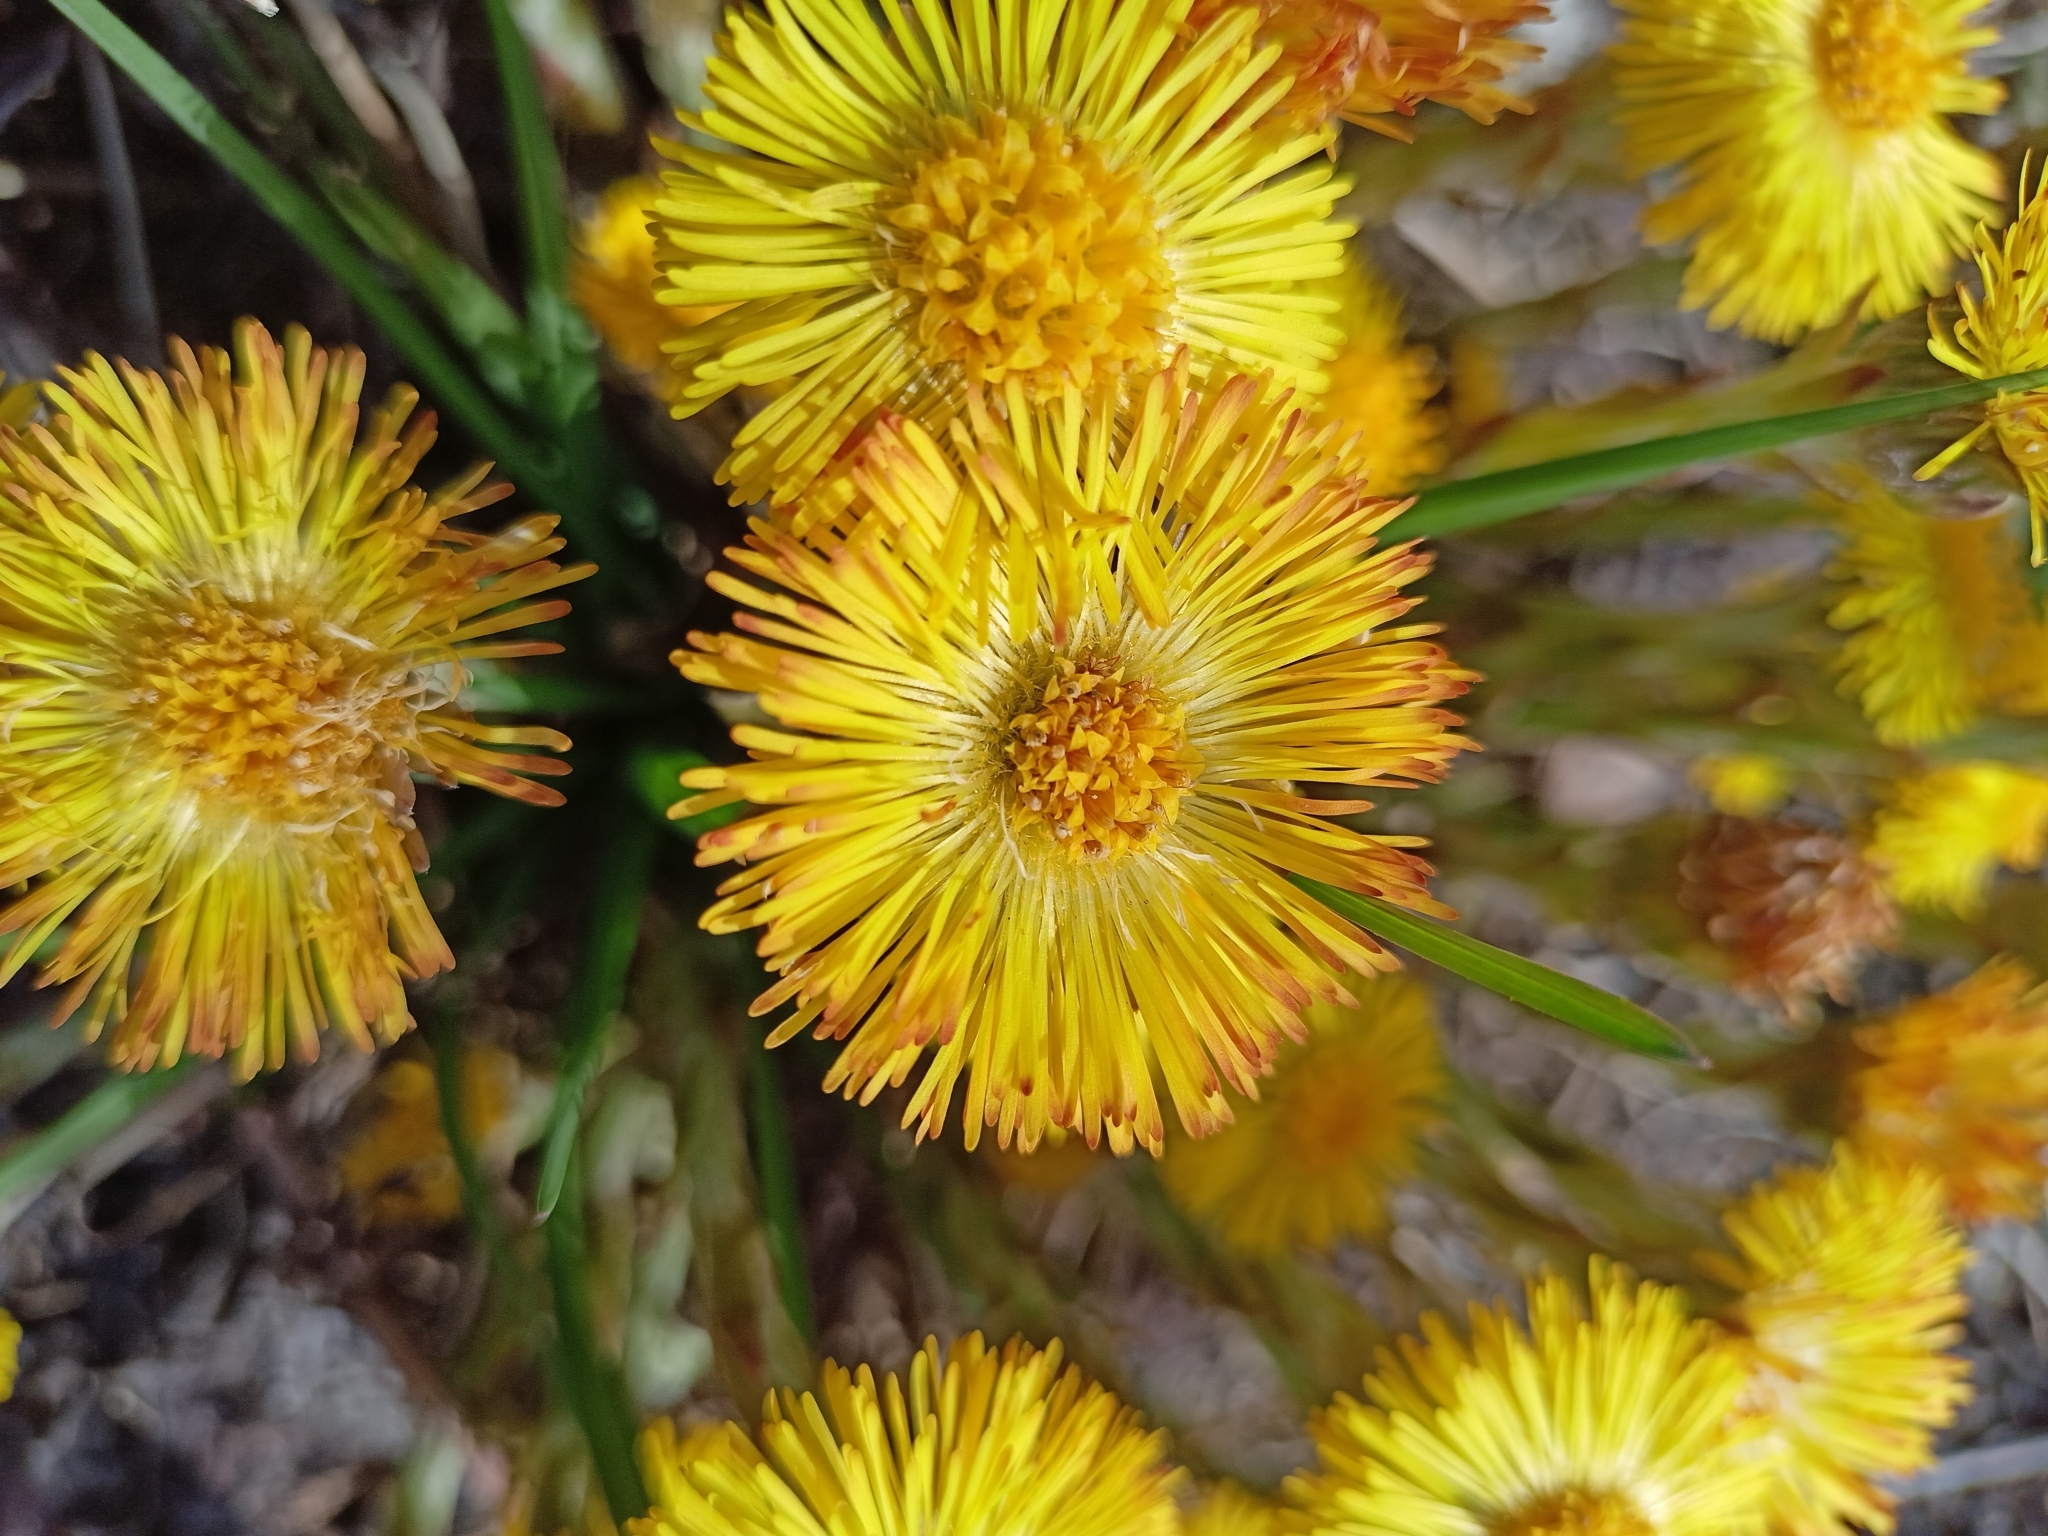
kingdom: Plantae
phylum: Tracheophyta
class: Magnoliopsida
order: Asterales
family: Asteraceae
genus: Tussilago
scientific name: Tussilago farfara
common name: Coltsfoot
